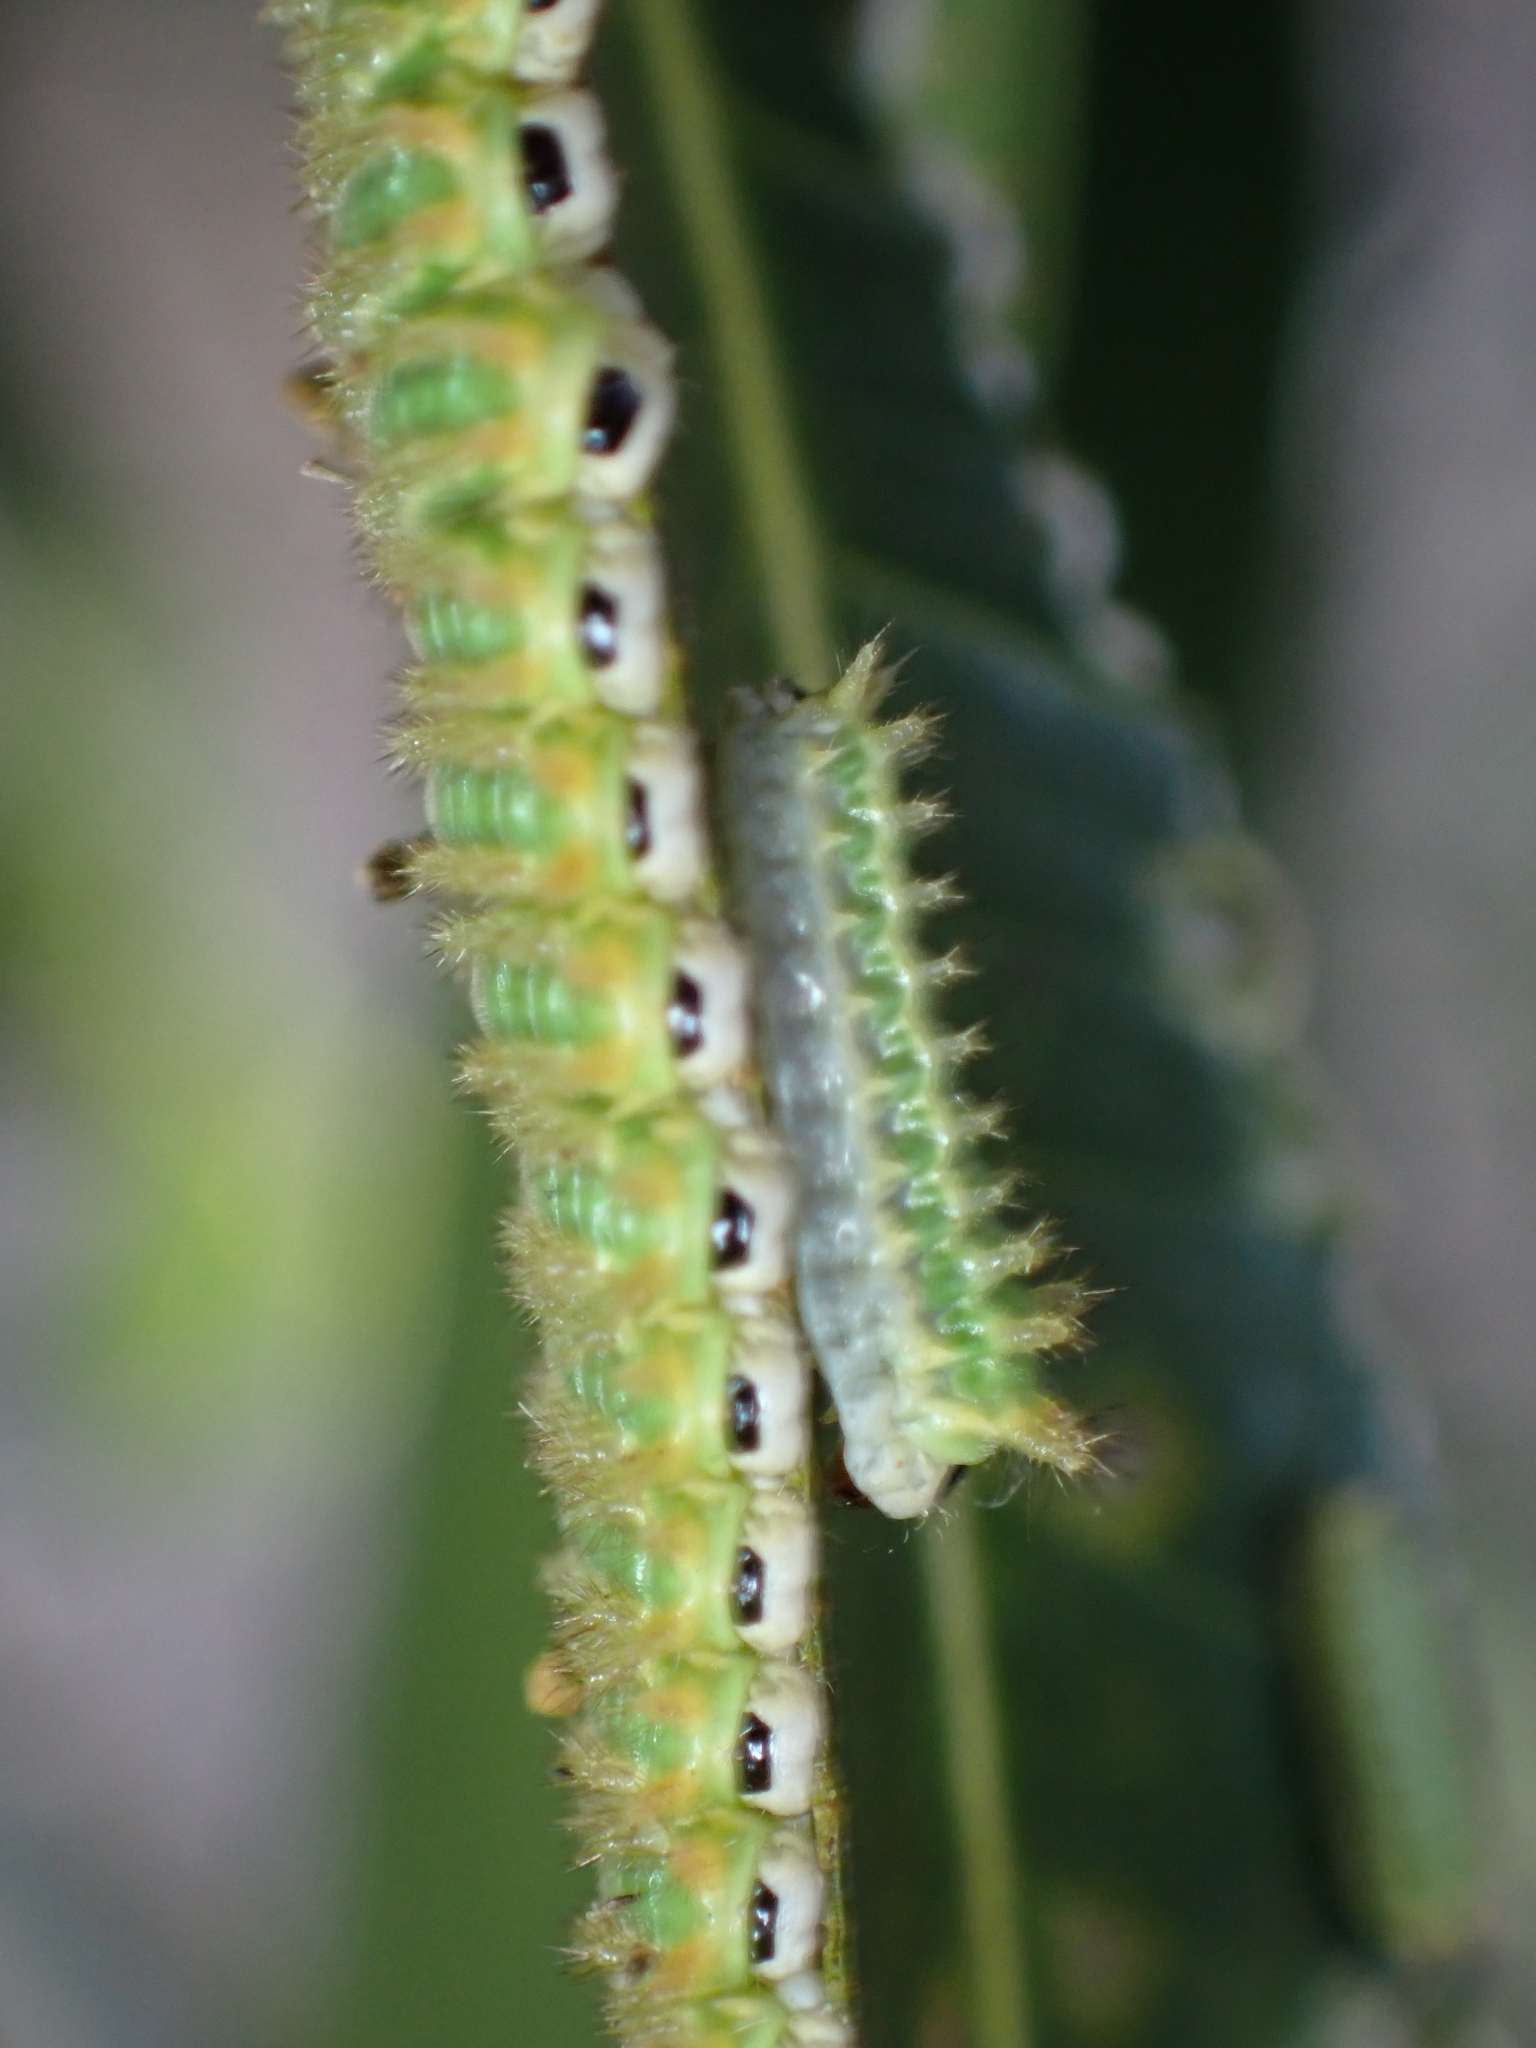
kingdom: Animalia
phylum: Arthropoda
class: Insecta
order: Lepidoptera
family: Limacodidae
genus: Doratifera
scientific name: Doratifera stenora
